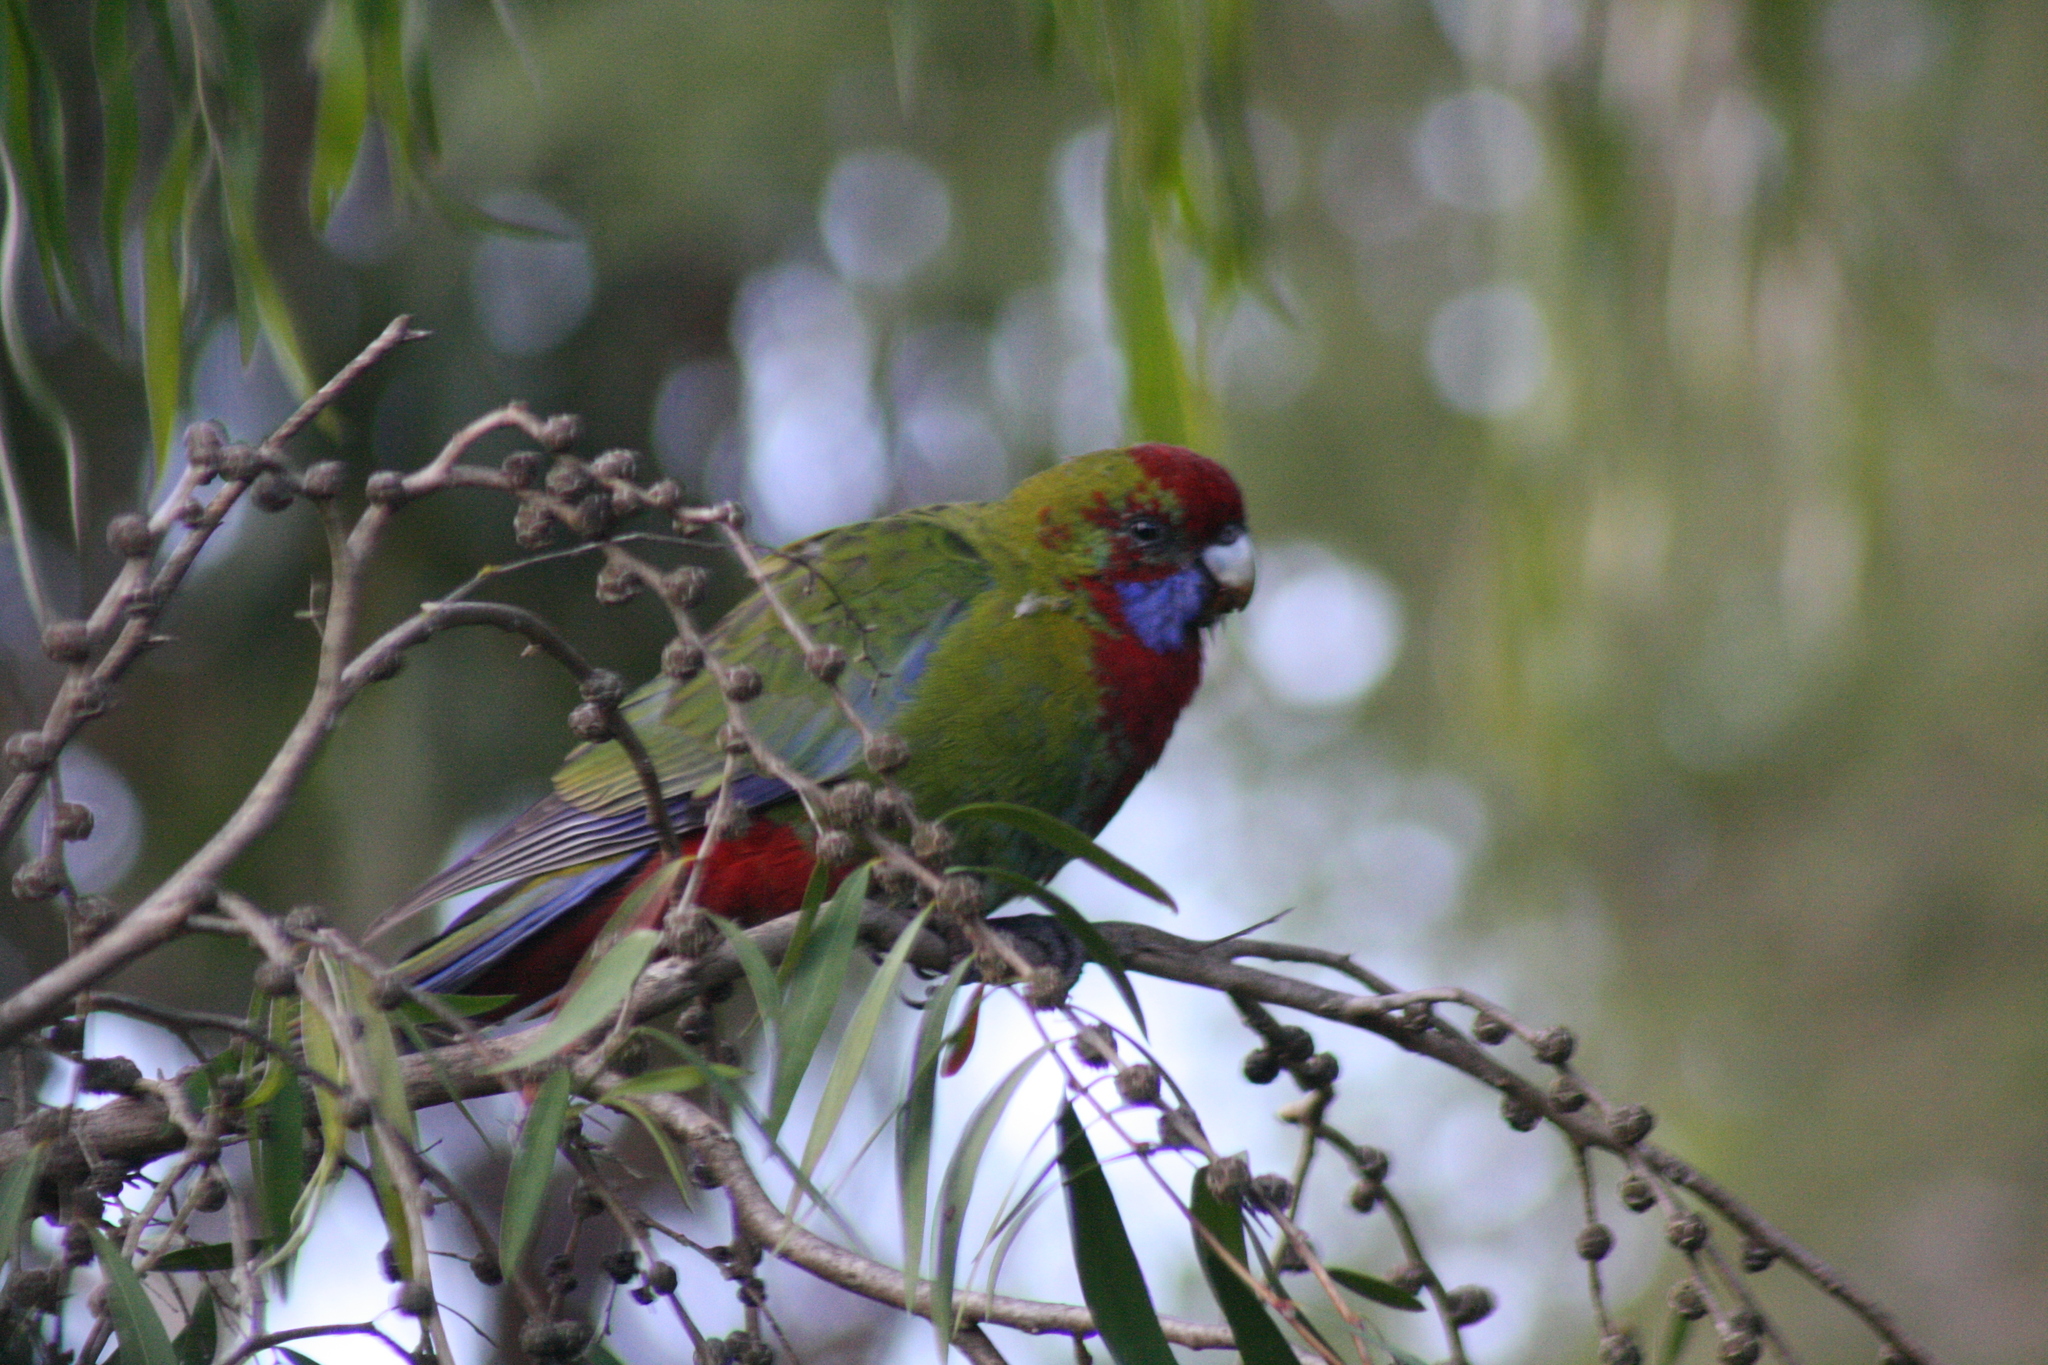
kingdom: Animalia
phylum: Chordata
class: Aves
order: Psittaciformes
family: Psittacidae
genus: Platycercus
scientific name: Platycercus elegans
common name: Crimson rosella
